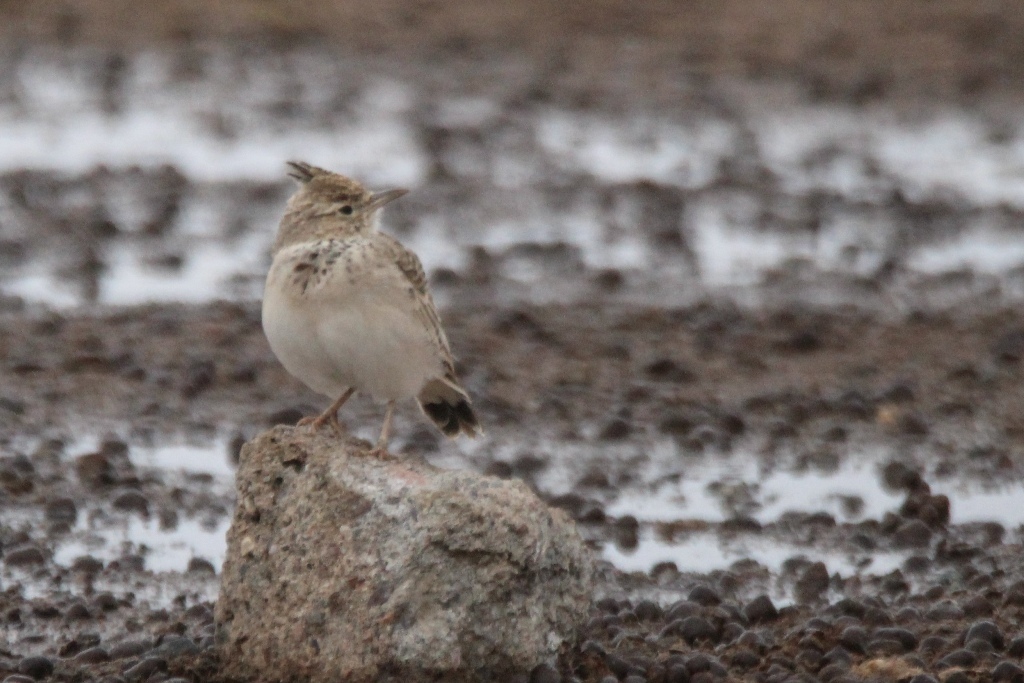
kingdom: Animalia
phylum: Chordata
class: Aves
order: Passeriformes
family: Alaudidae
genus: Galerida
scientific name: Galerida cristata
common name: Crested lark
